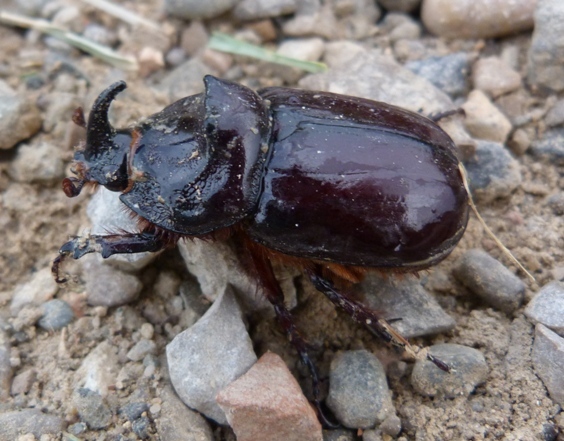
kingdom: Animalia
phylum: Arthropoda
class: Insecta
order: Coleoptera
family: Scarabaeidae
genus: Oryctes
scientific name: Oryctes nasicornis
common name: European rhinoceros beetle
